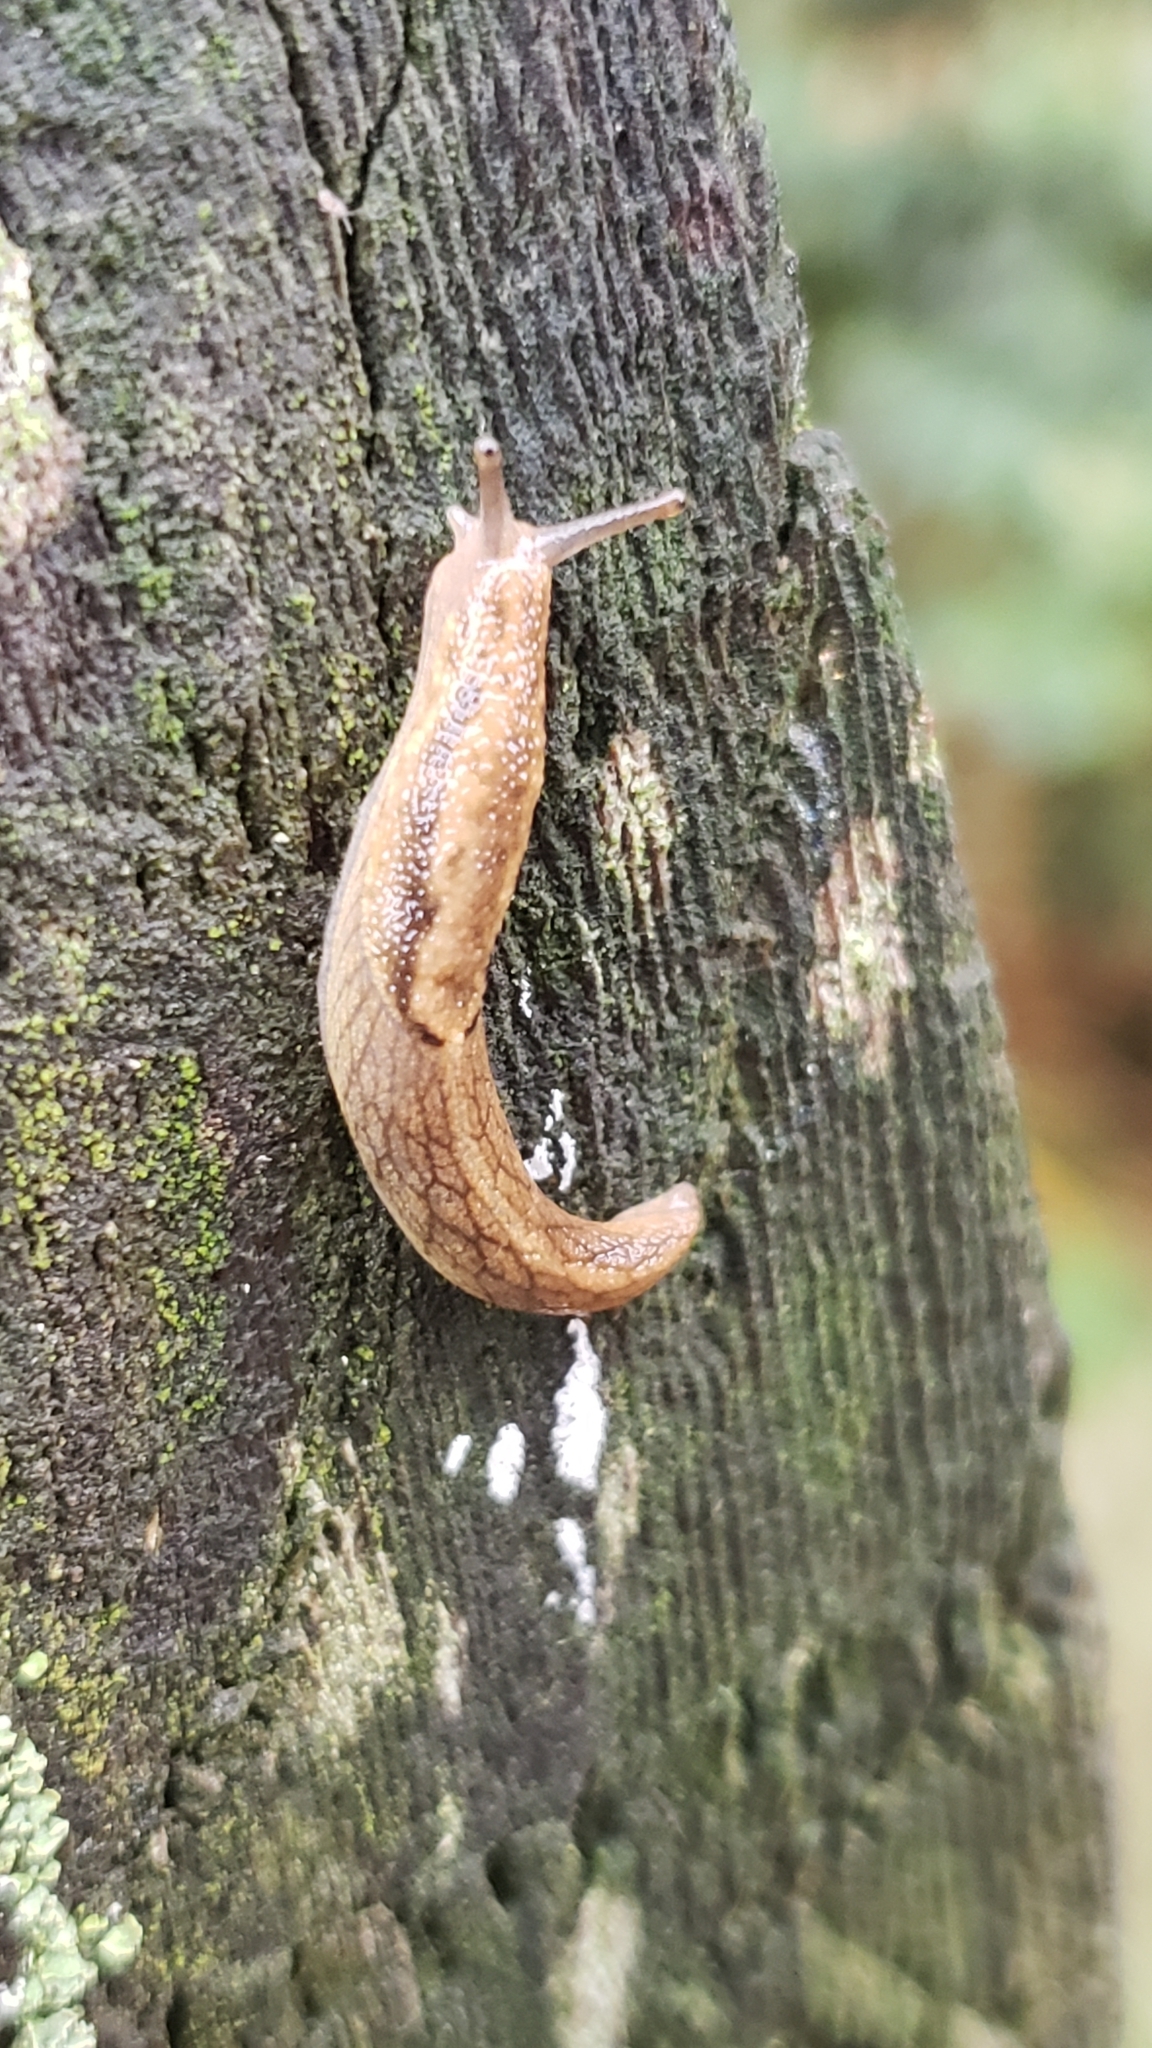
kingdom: Animalia
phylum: Mollusca
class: Gastropoda
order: Stylommatophora
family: Ariolimacidae
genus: Prophysaon
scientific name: Prophysaon andersonii
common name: Reticulate taildropper
